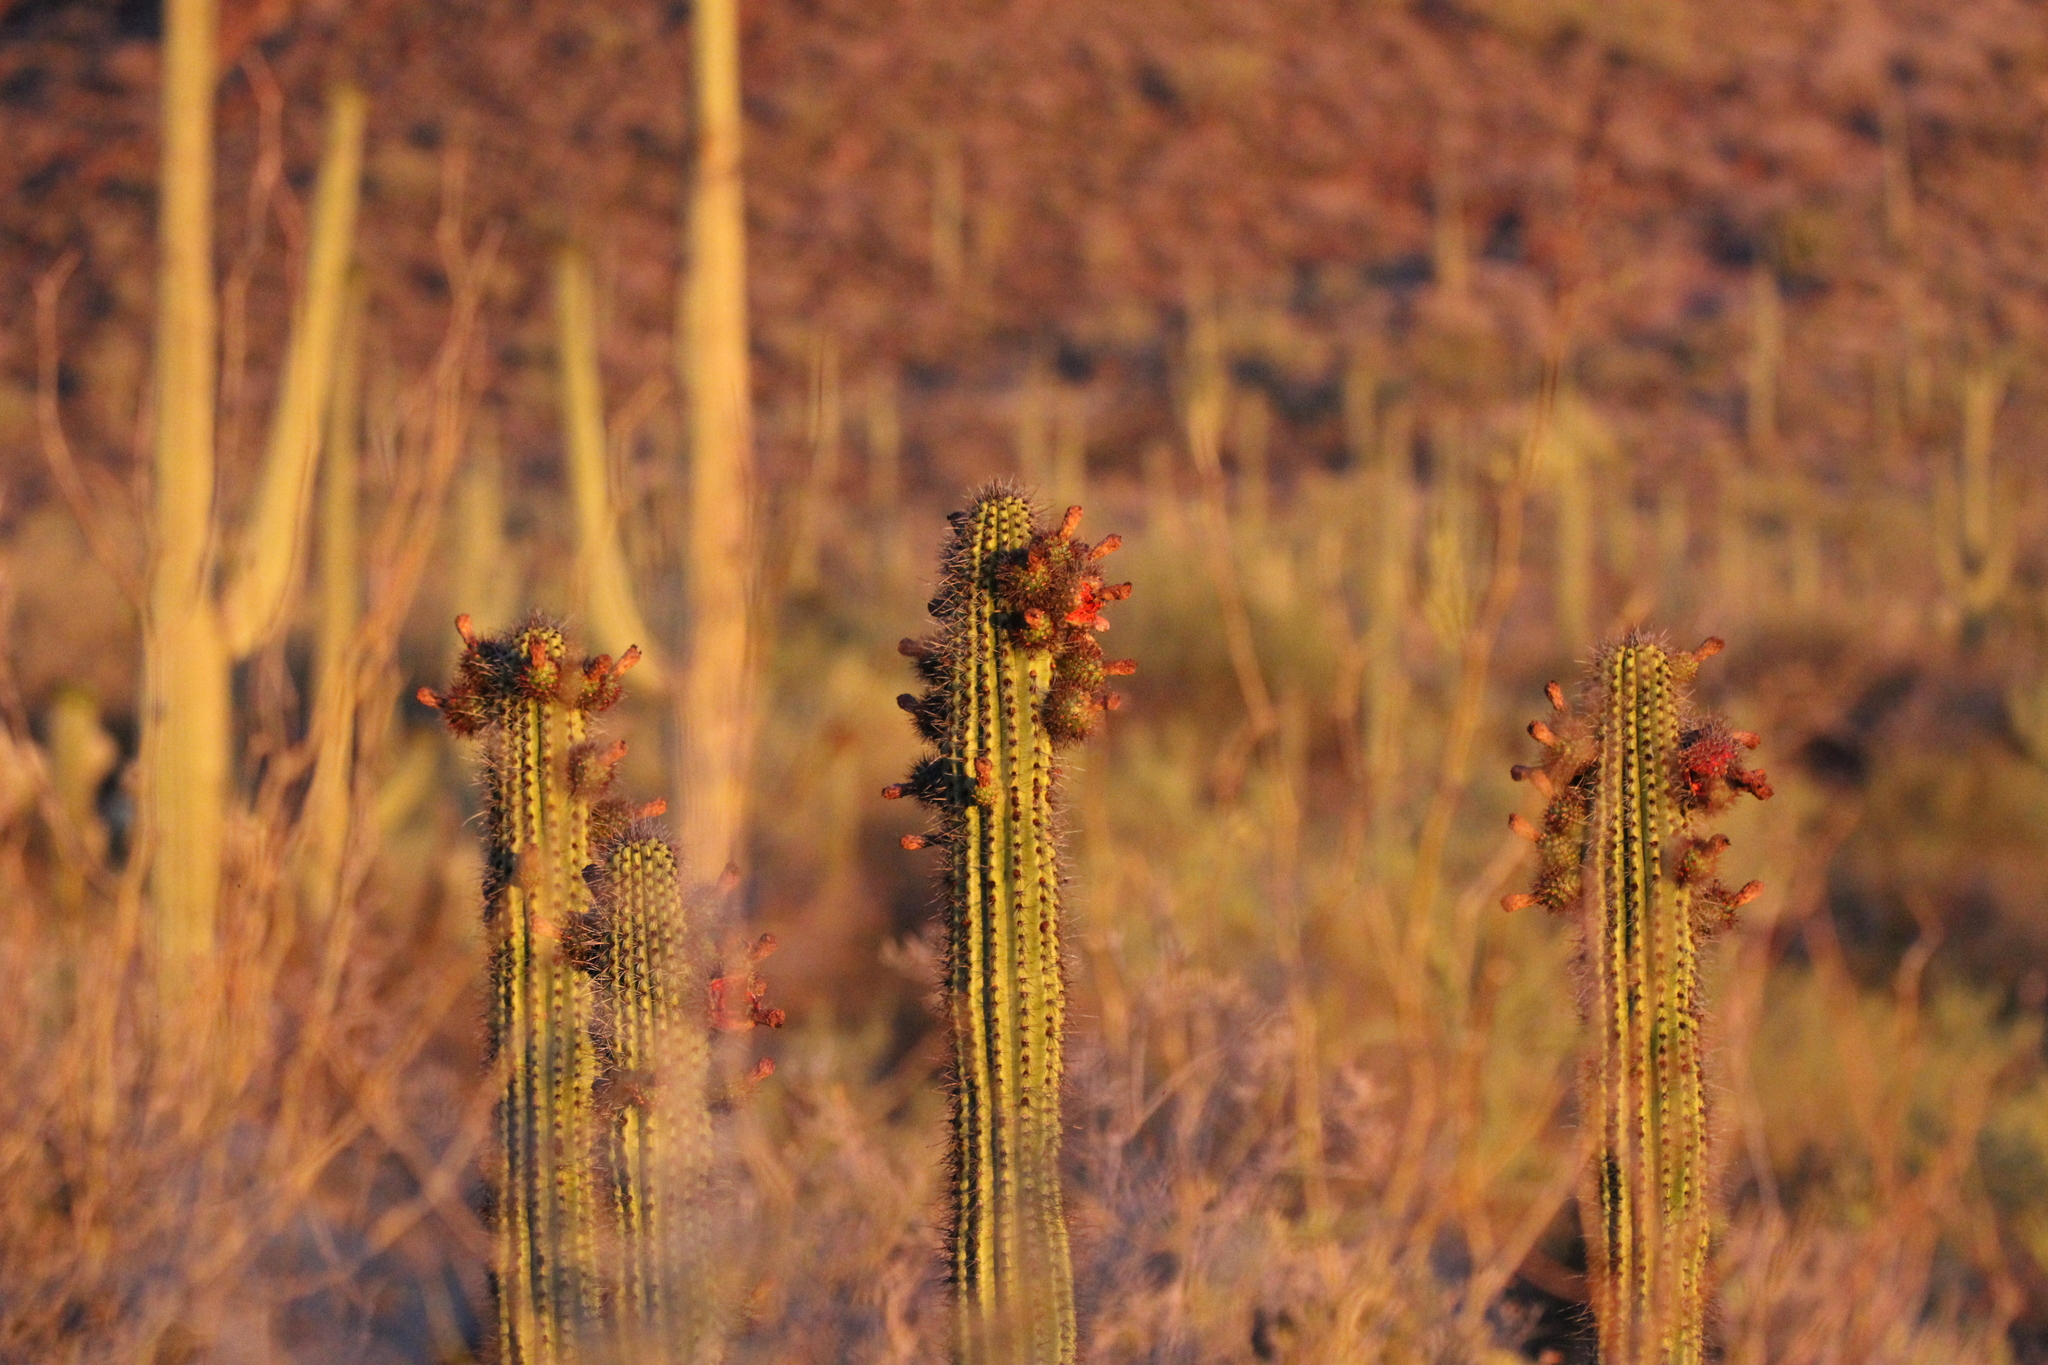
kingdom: Plantae
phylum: Tracheophyta
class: Magnoliopsida
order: Caryophyllales
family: Cactaceae
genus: Stenocereus
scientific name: Stenocereus thurberi
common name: Organ pipe cactus
